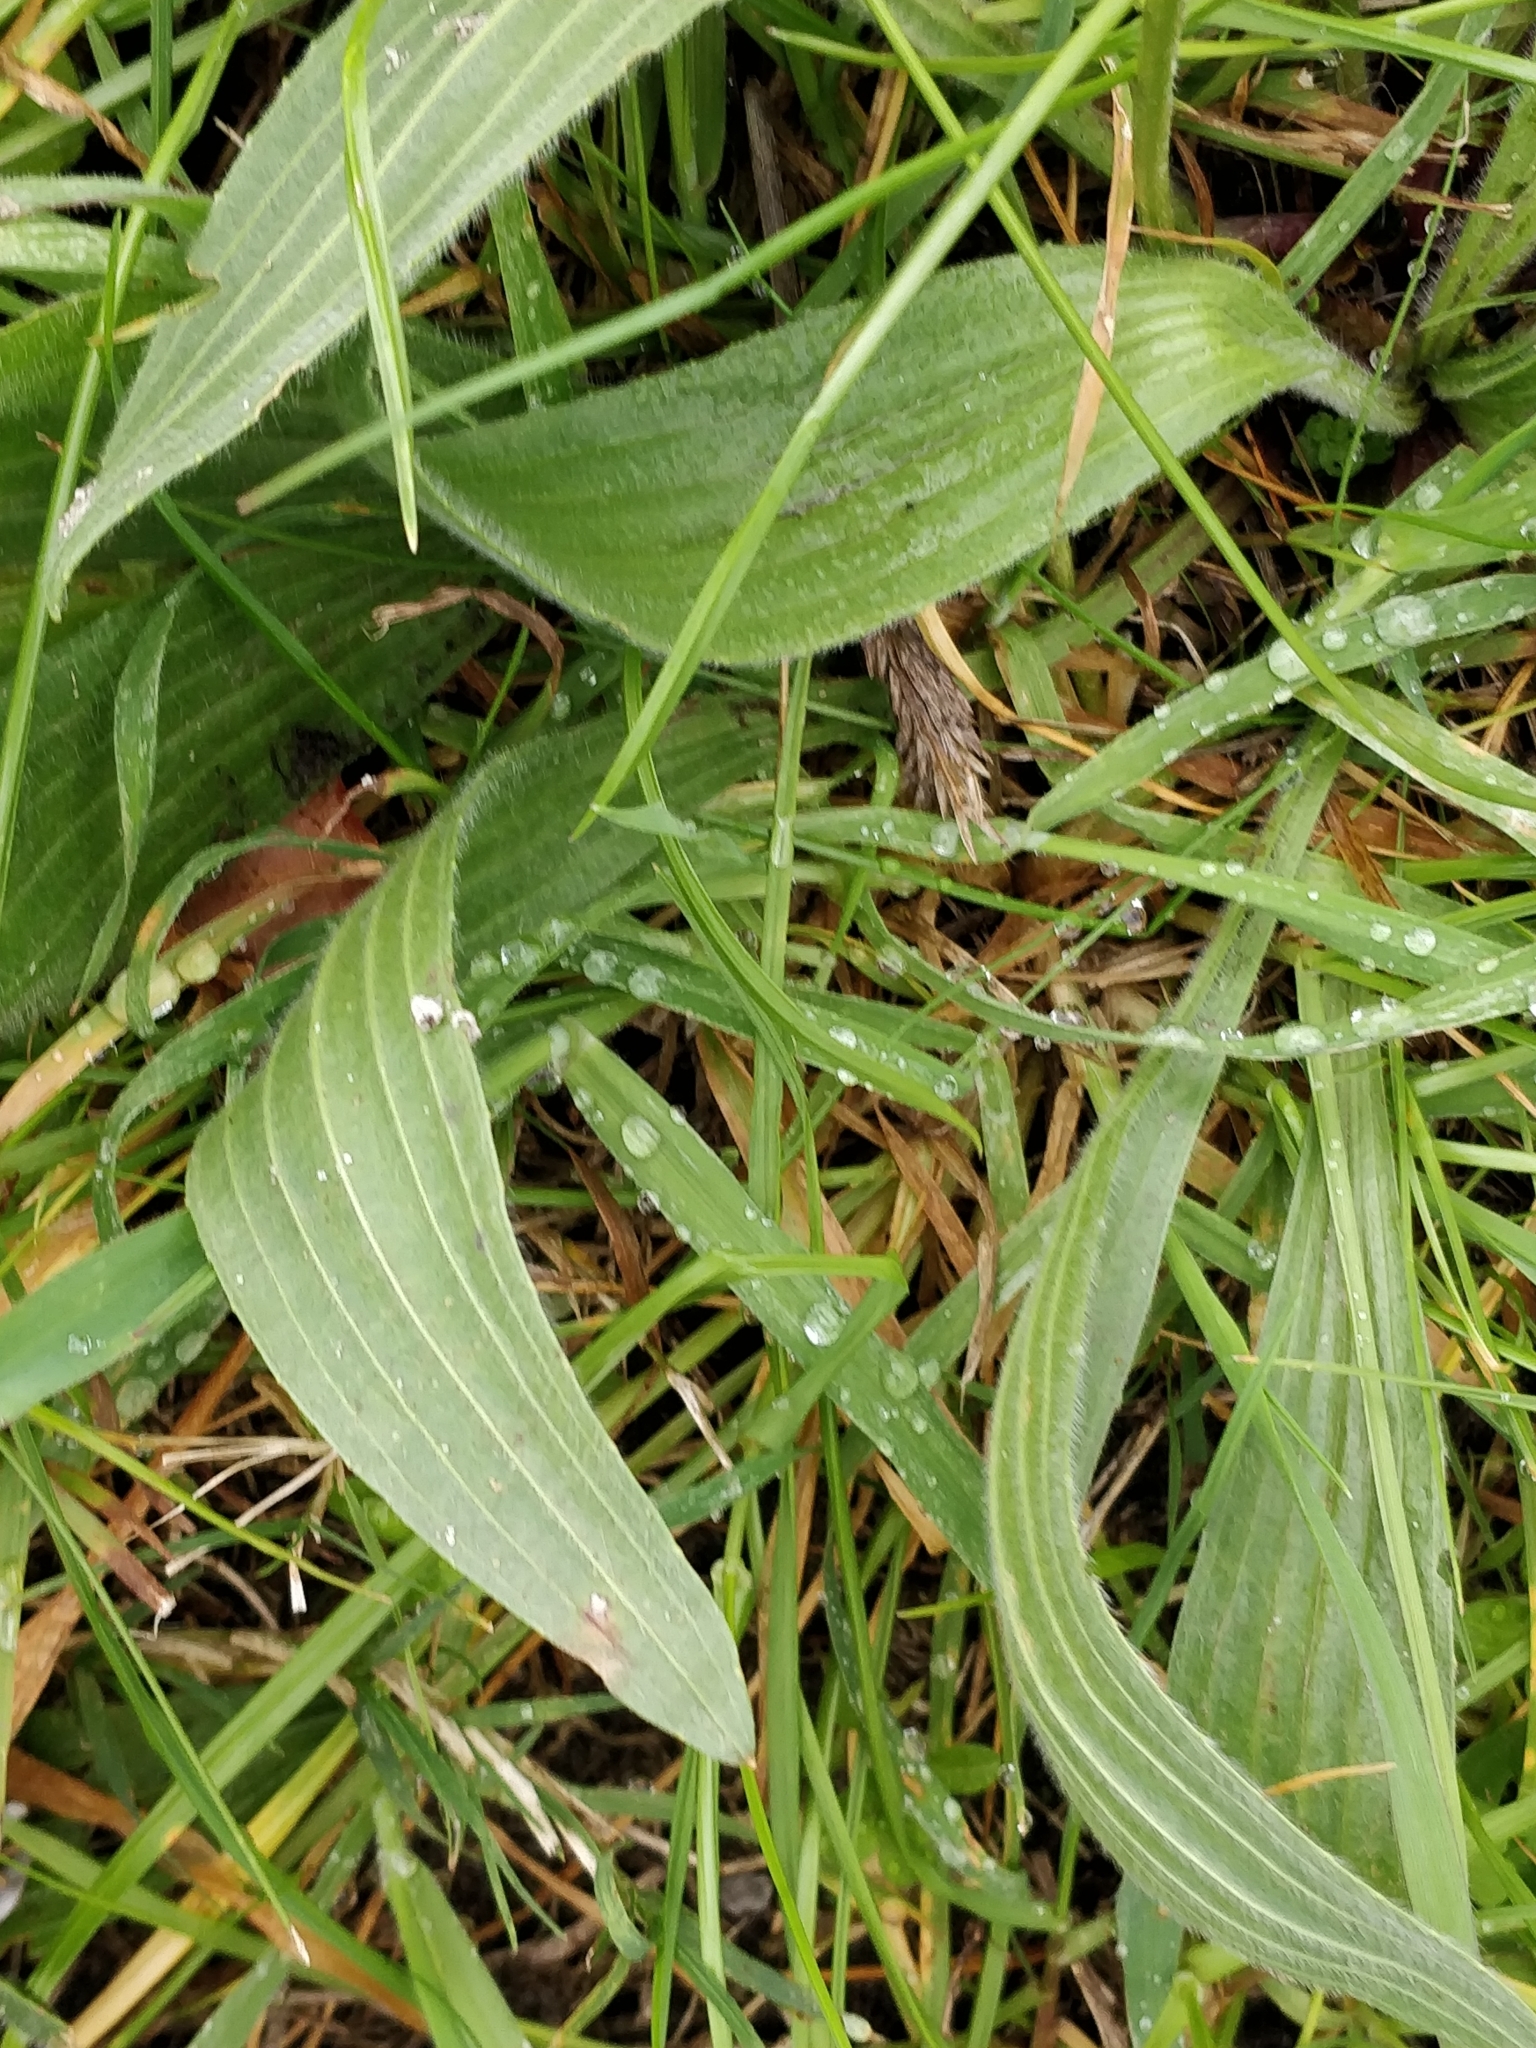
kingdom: Plantae
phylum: Tracheophyta
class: Magnoliopsida
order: Lamiales
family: Plantaginaceae
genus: Plantago
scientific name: Plantago lanceolata
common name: Ribwort plantain
